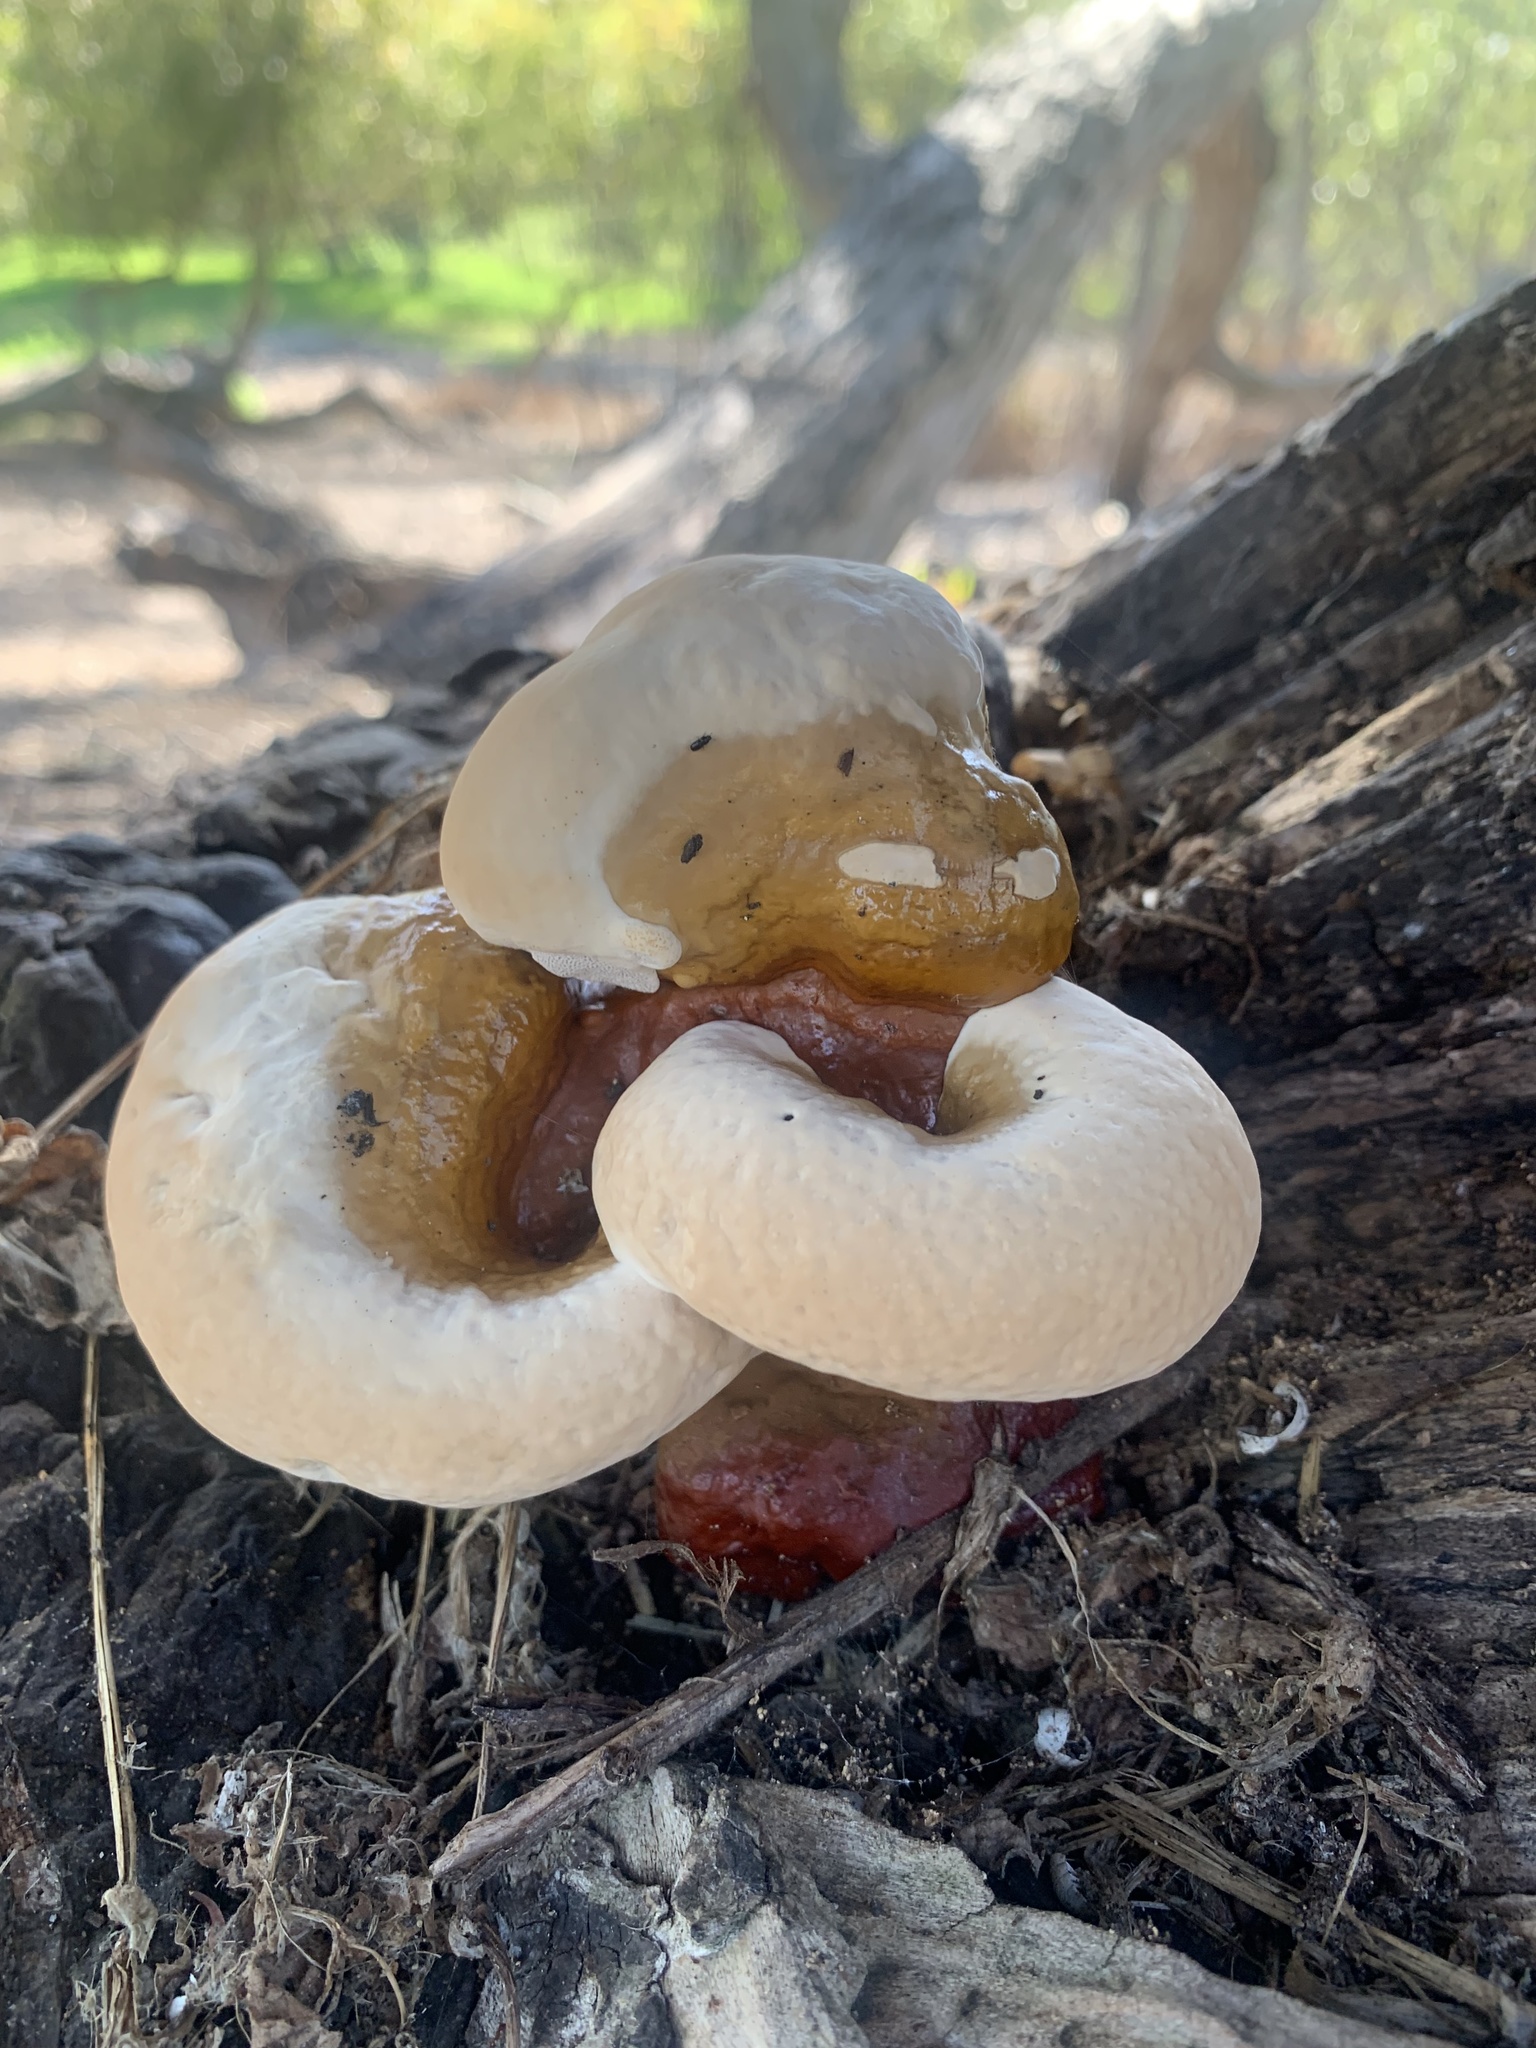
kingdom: Fungi
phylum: Basidiomycota
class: Agaricomycetes
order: Polyporales
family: Polyporaceae
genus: Ganoderma
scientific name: Ganoderma polychromum
